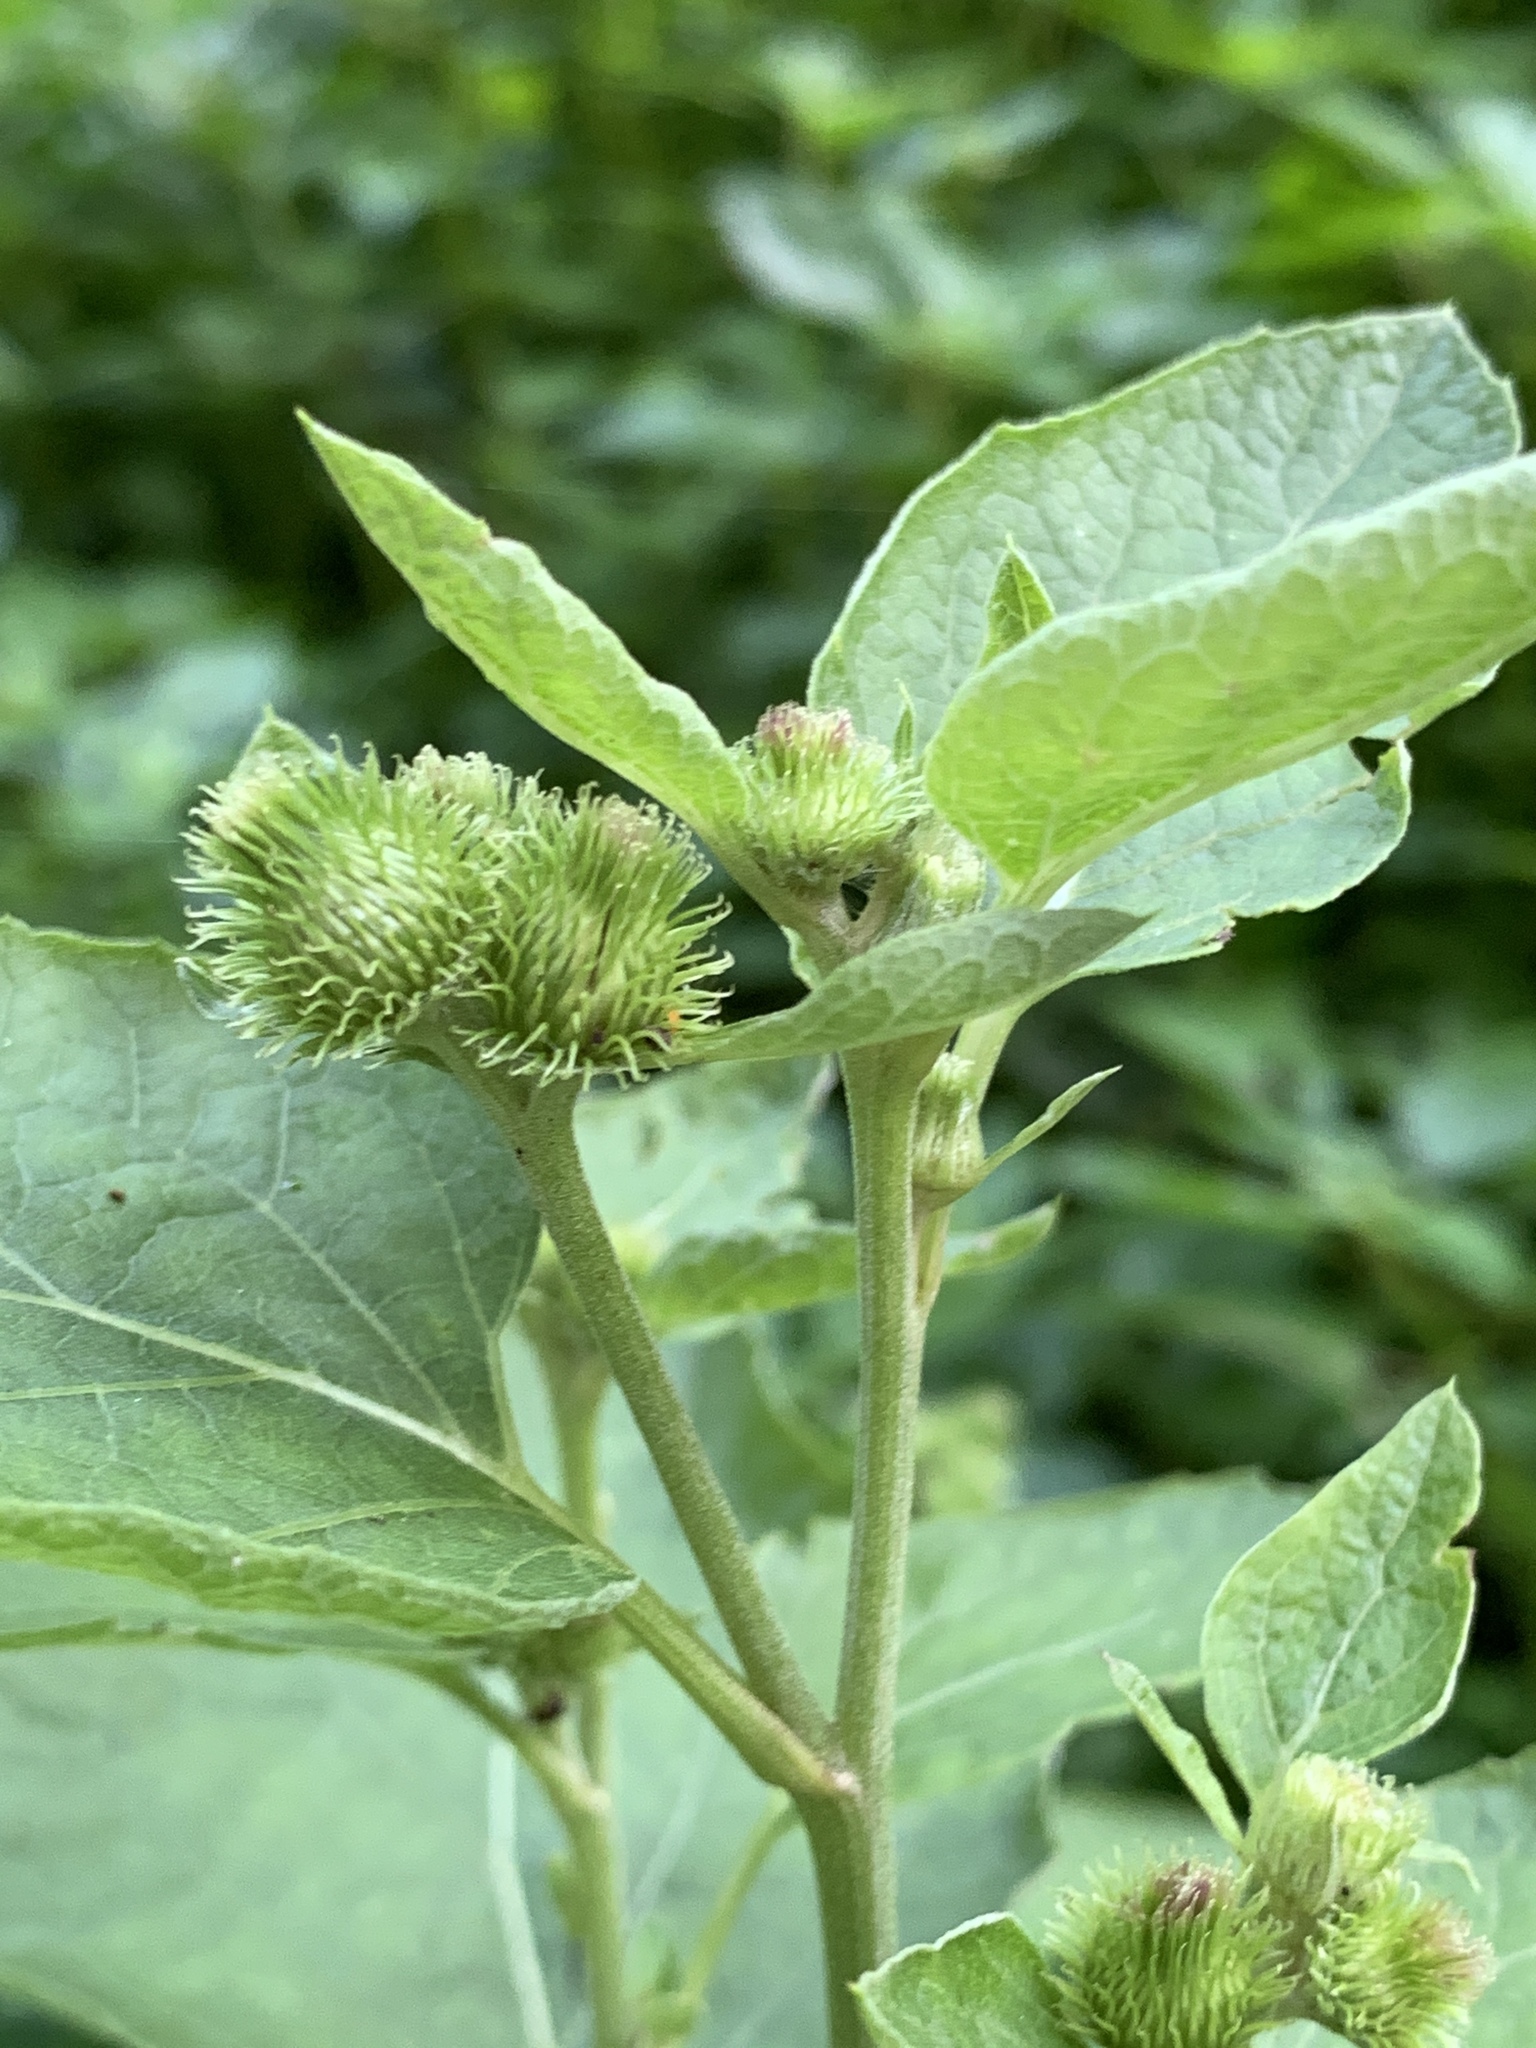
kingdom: Plantae
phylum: Tracheophyta
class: Magnoliopsida
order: Asterales
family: Asteraceae
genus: Arctium
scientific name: Arctium minus
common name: Lesser burdock
